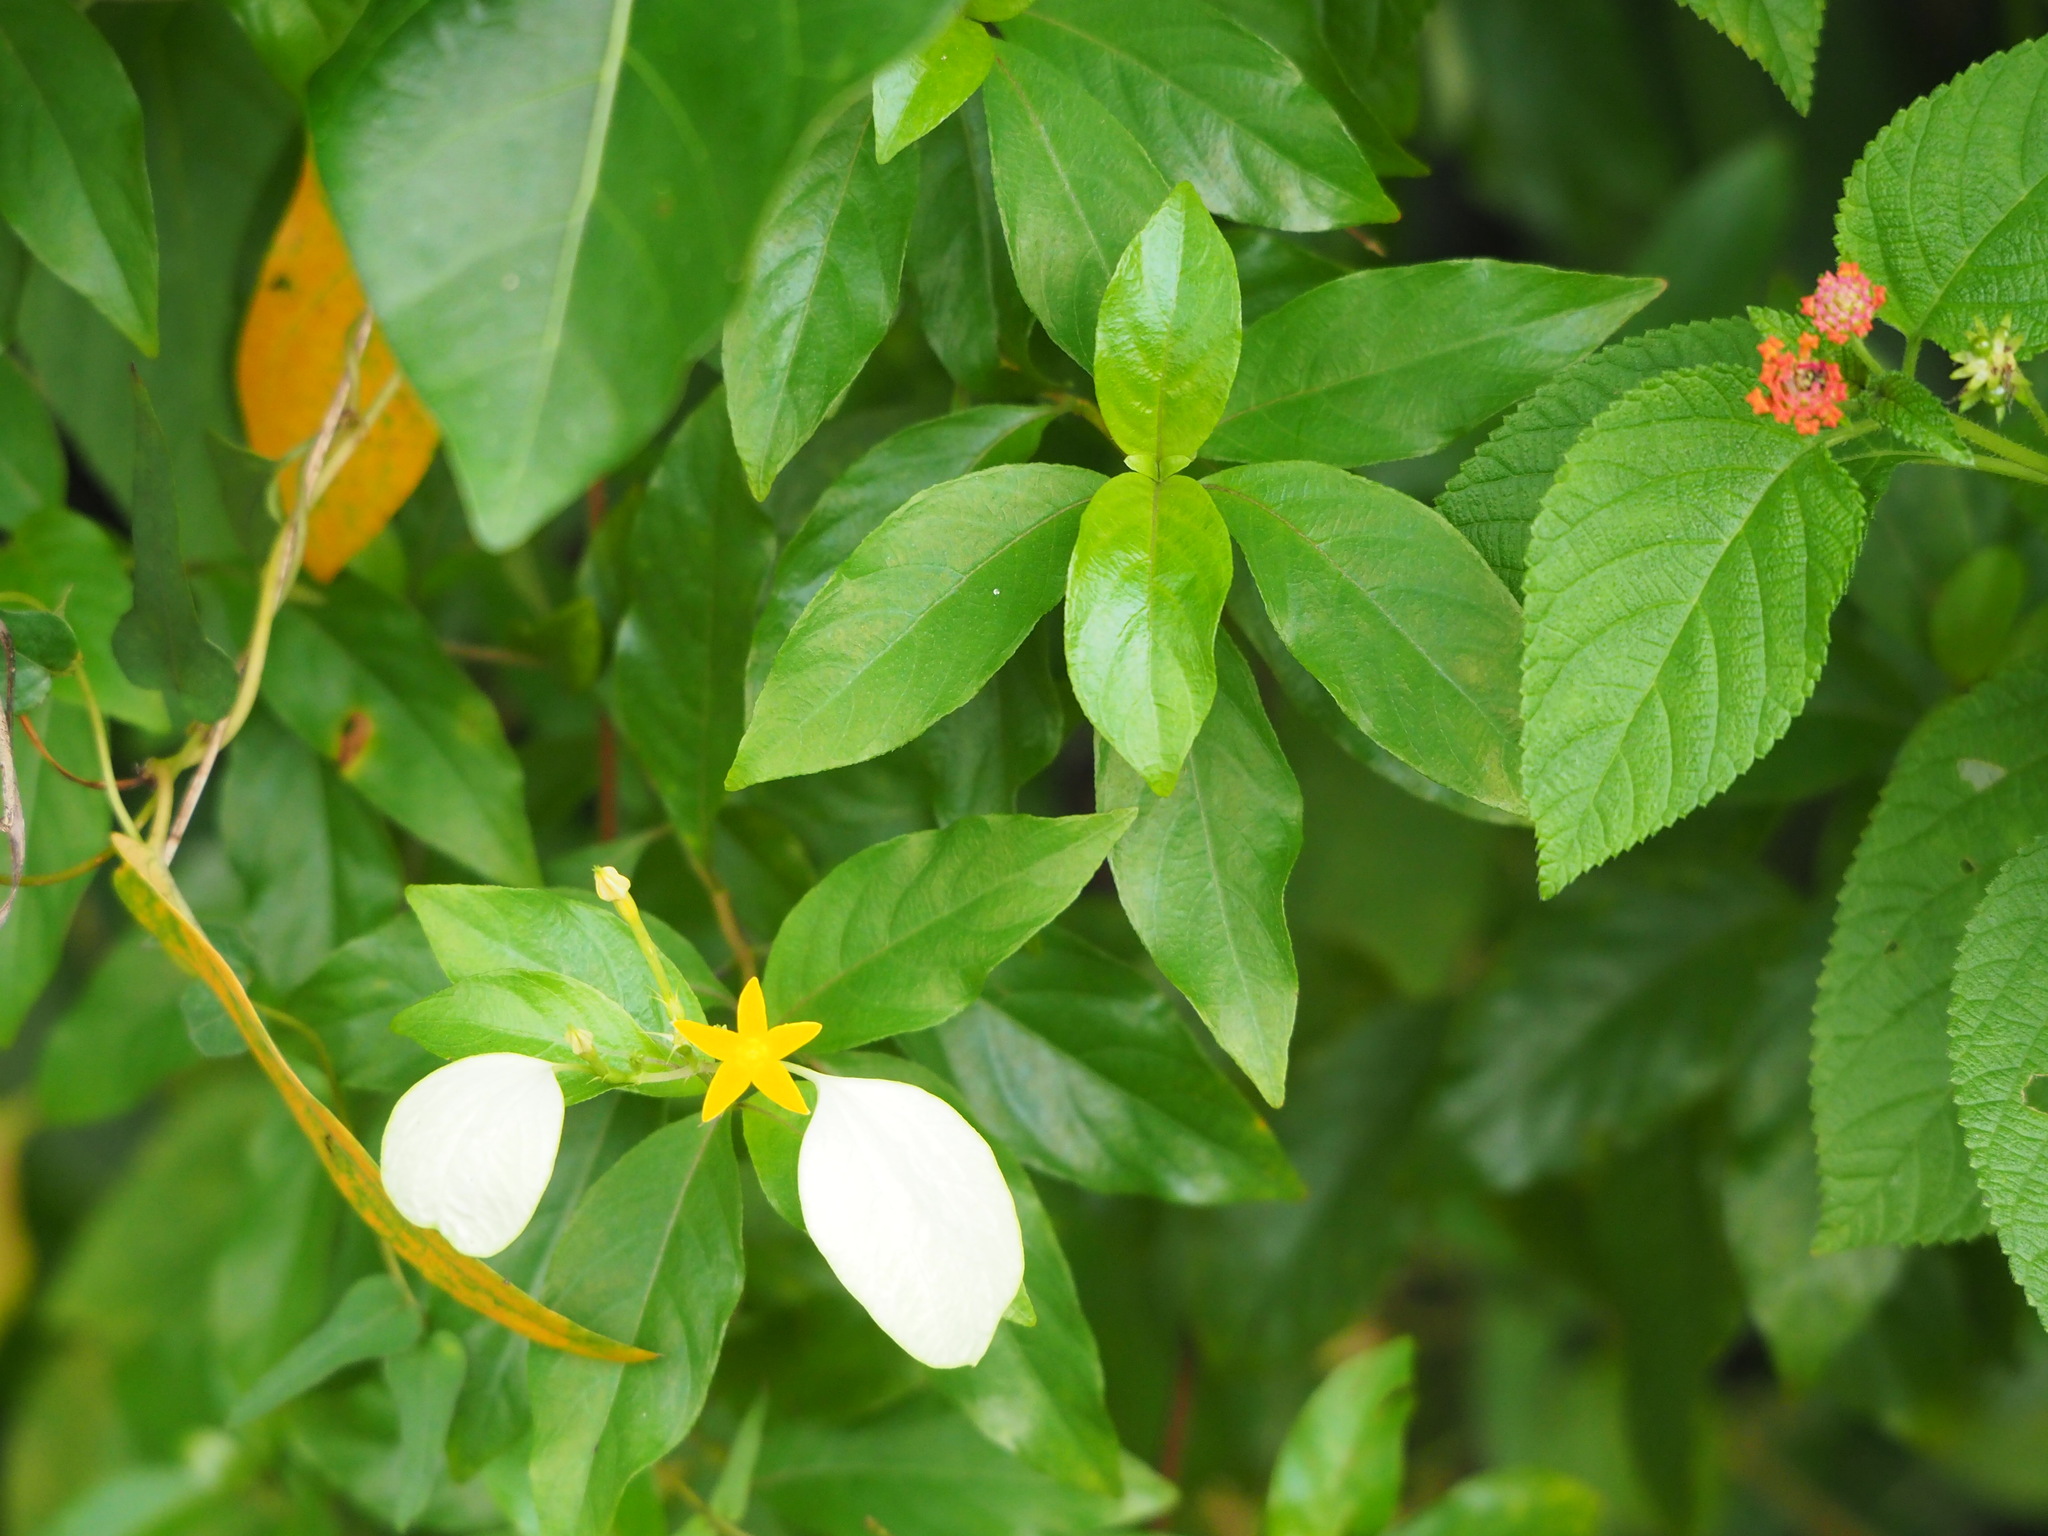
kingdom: Plantae
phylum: Tracheophyta
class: Magnoliopsida
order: Gentianales
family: Rubiaceae
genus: Mussaenda
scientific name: Mussaenda formosana
